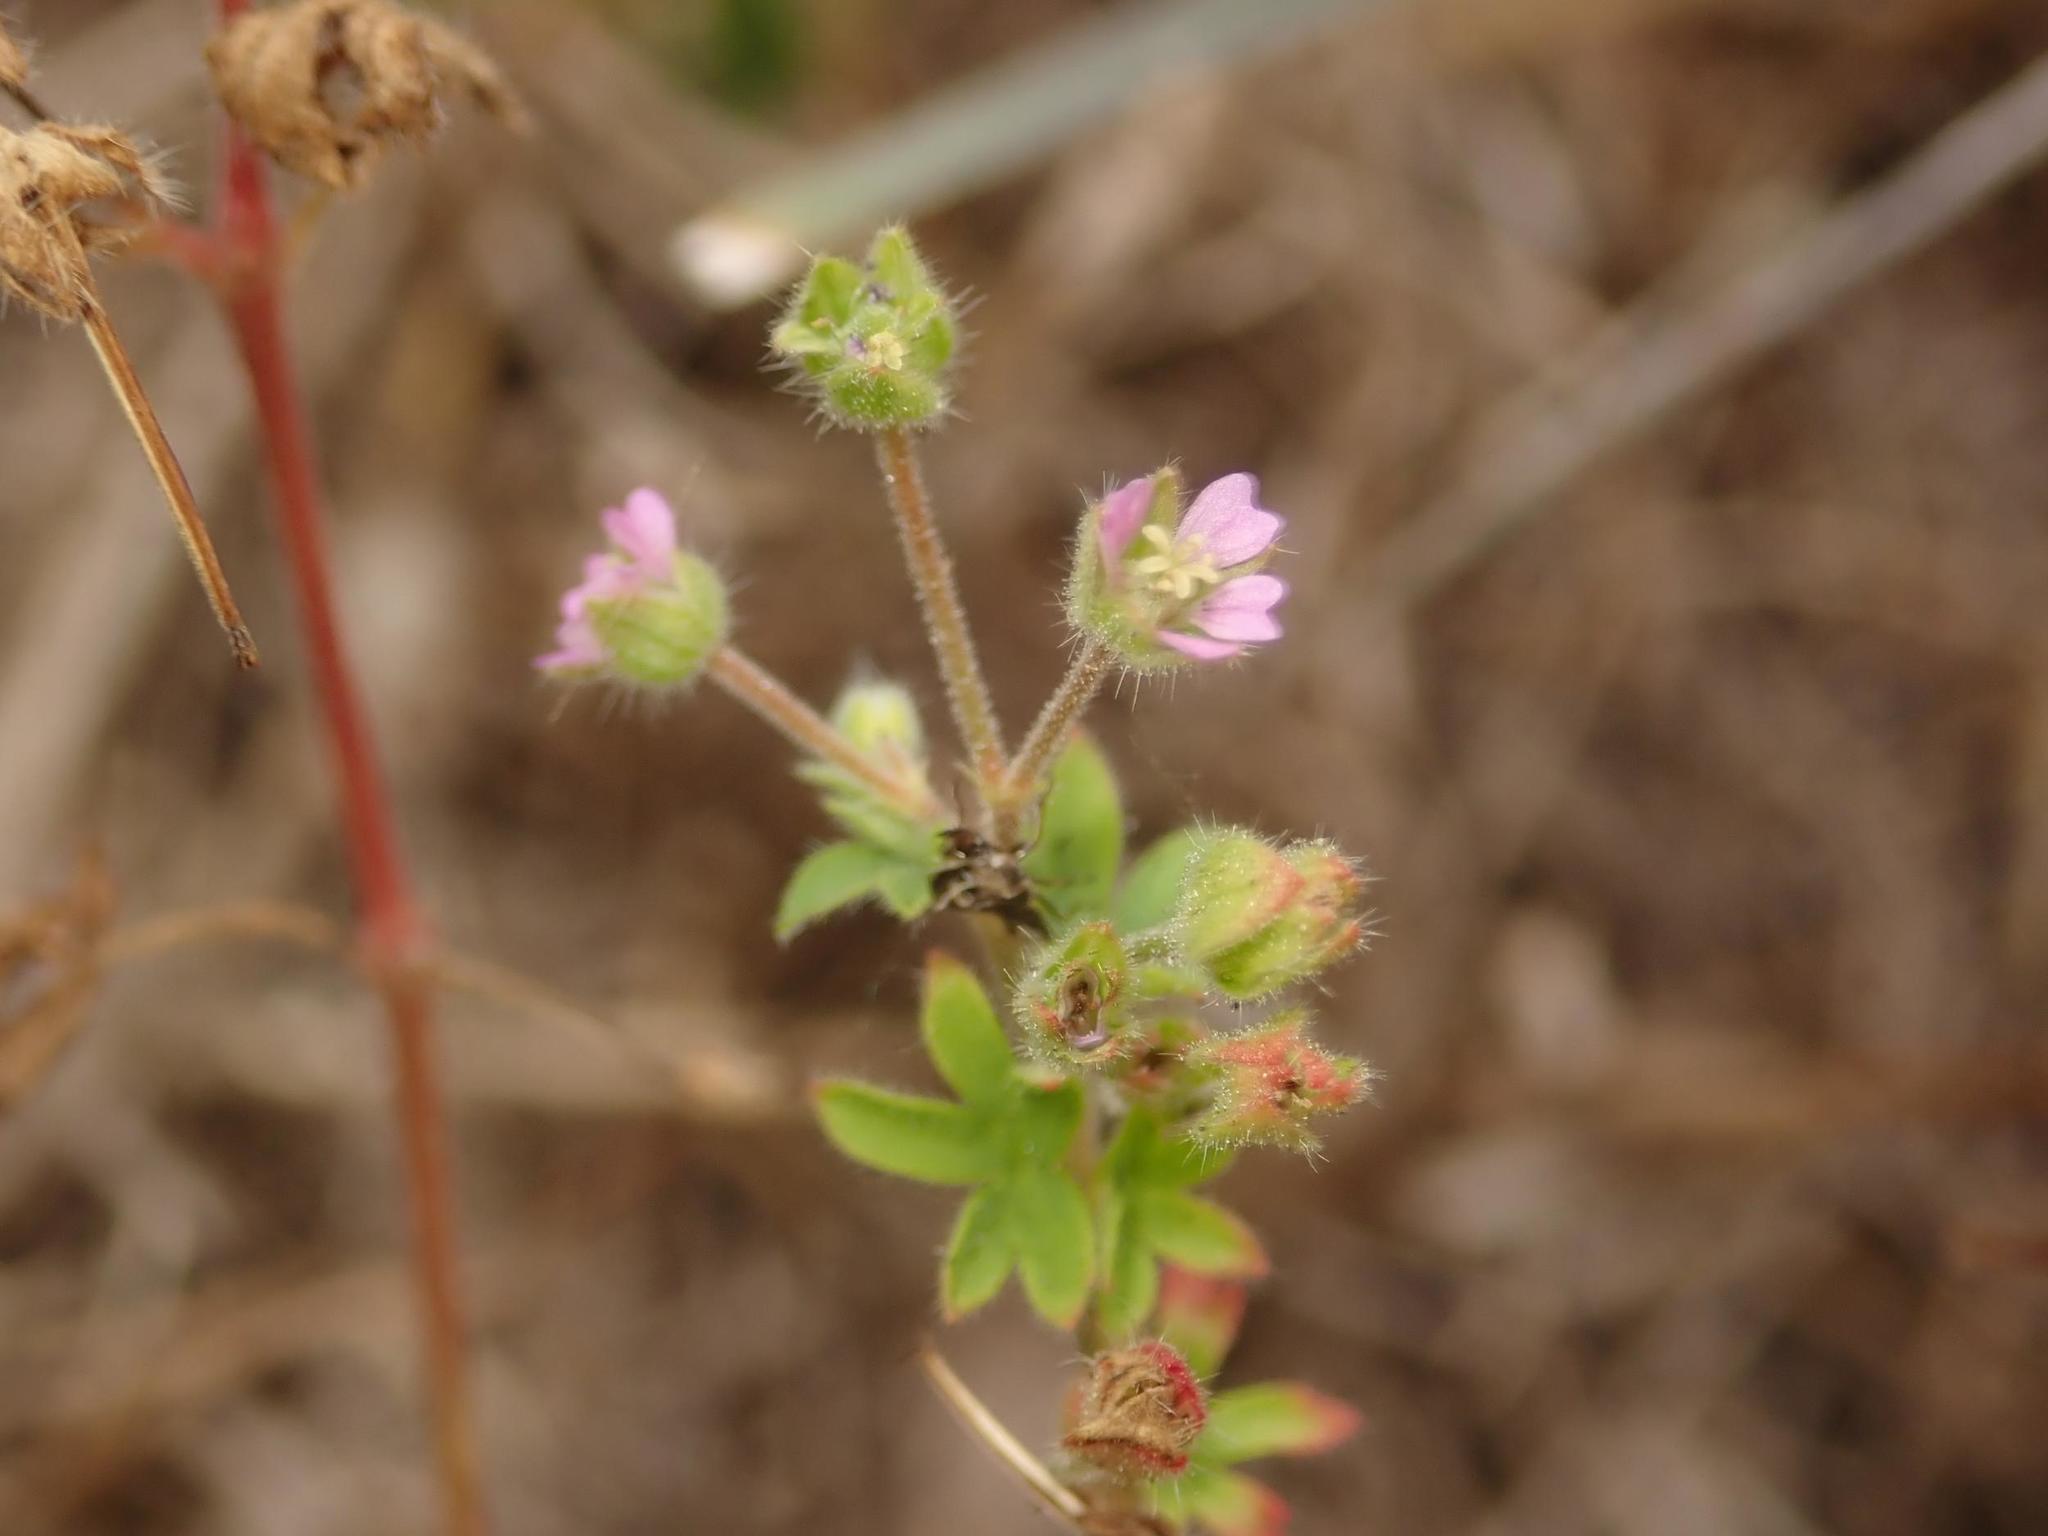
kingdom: Plantae
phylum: Tracheophyta
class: Magnoliopsida
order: Geraniales
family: Geraniaceae
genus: Geranium
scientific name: Geranium pusillum
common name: Small geranium
